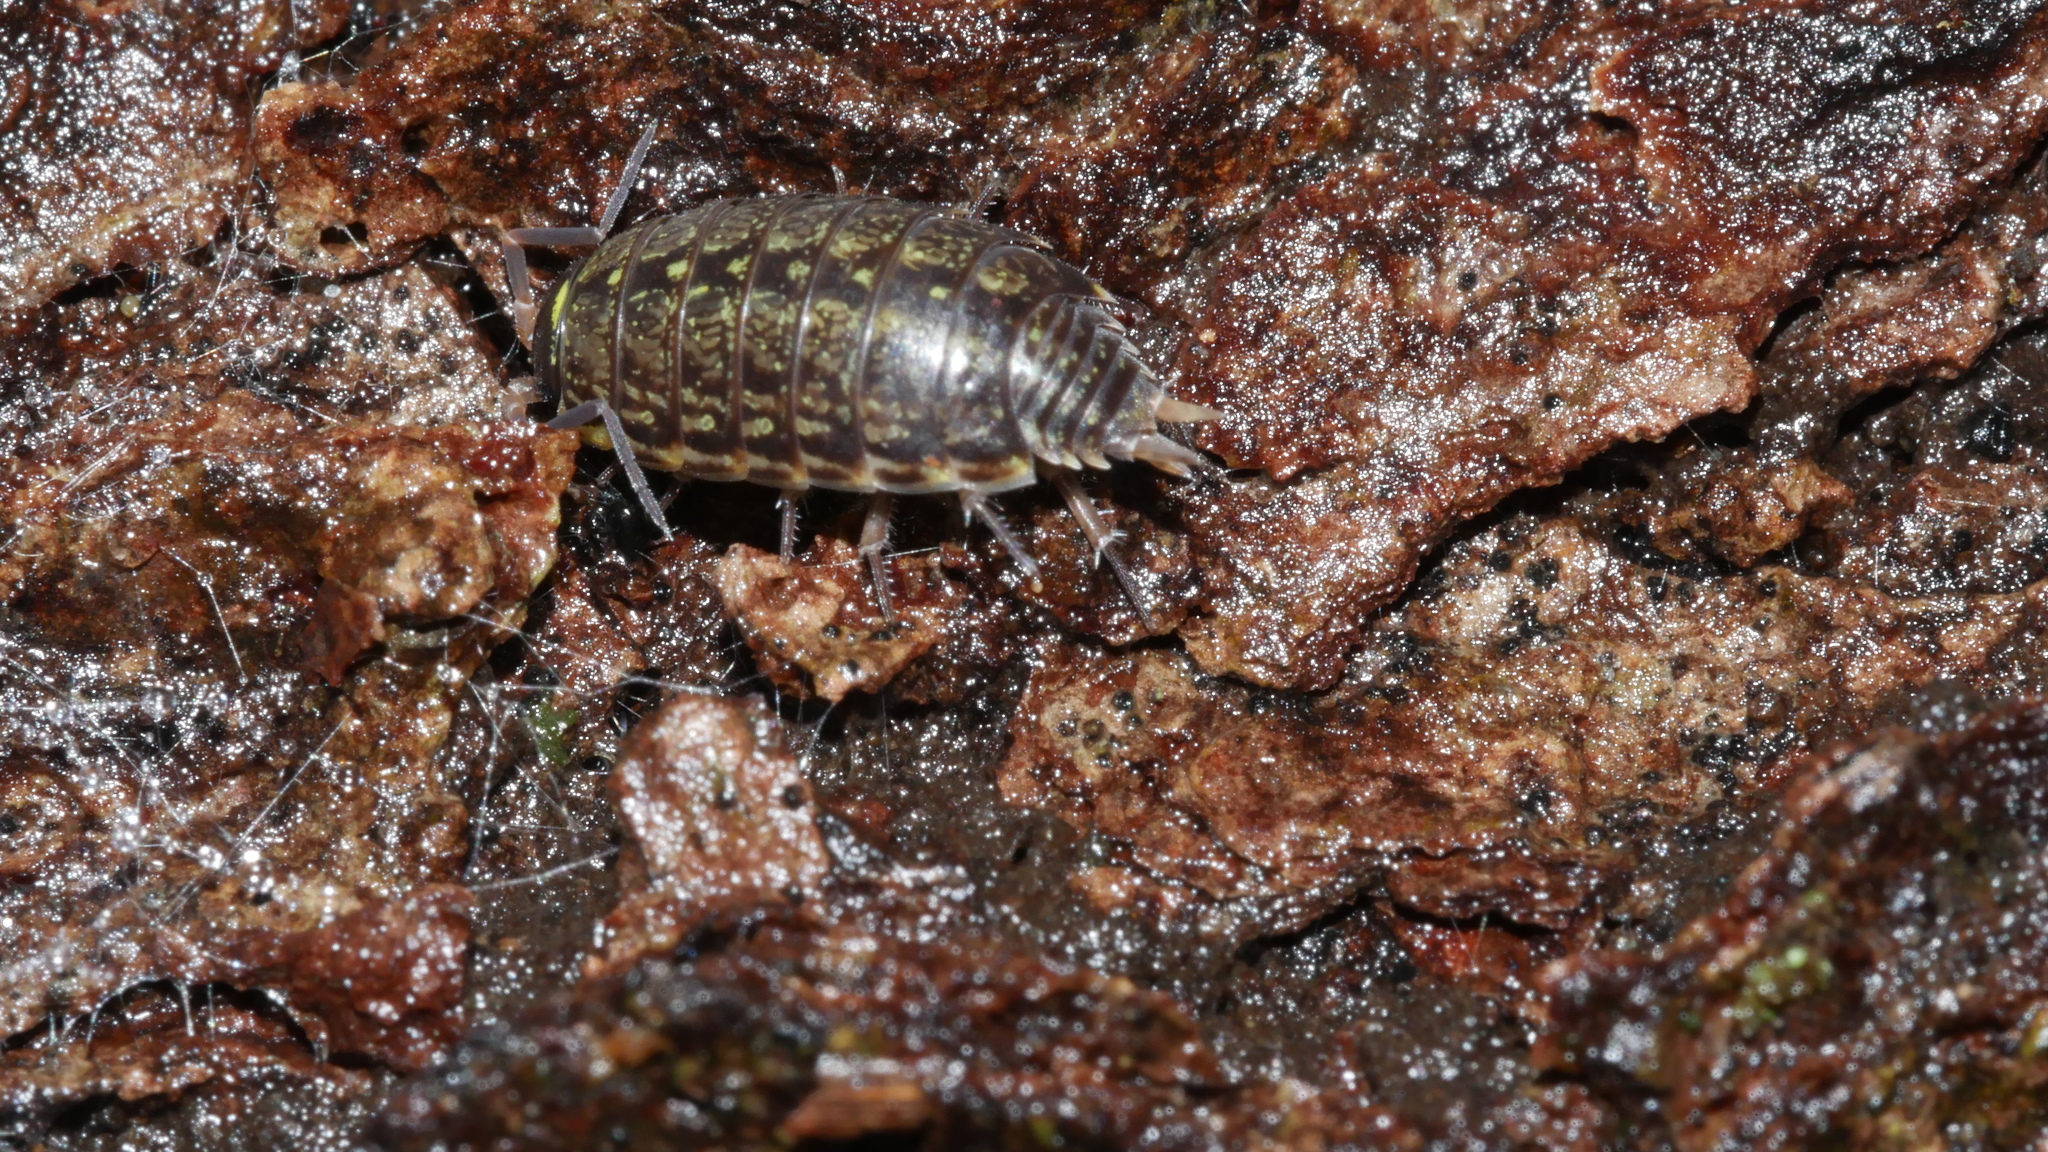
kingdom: Animalia
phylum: Arthropoda
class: Malacostraca
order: Isopoda
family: Philosciidae
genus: Philoscia
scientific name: Philoscia muscorum
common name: Common striped woodlouse
